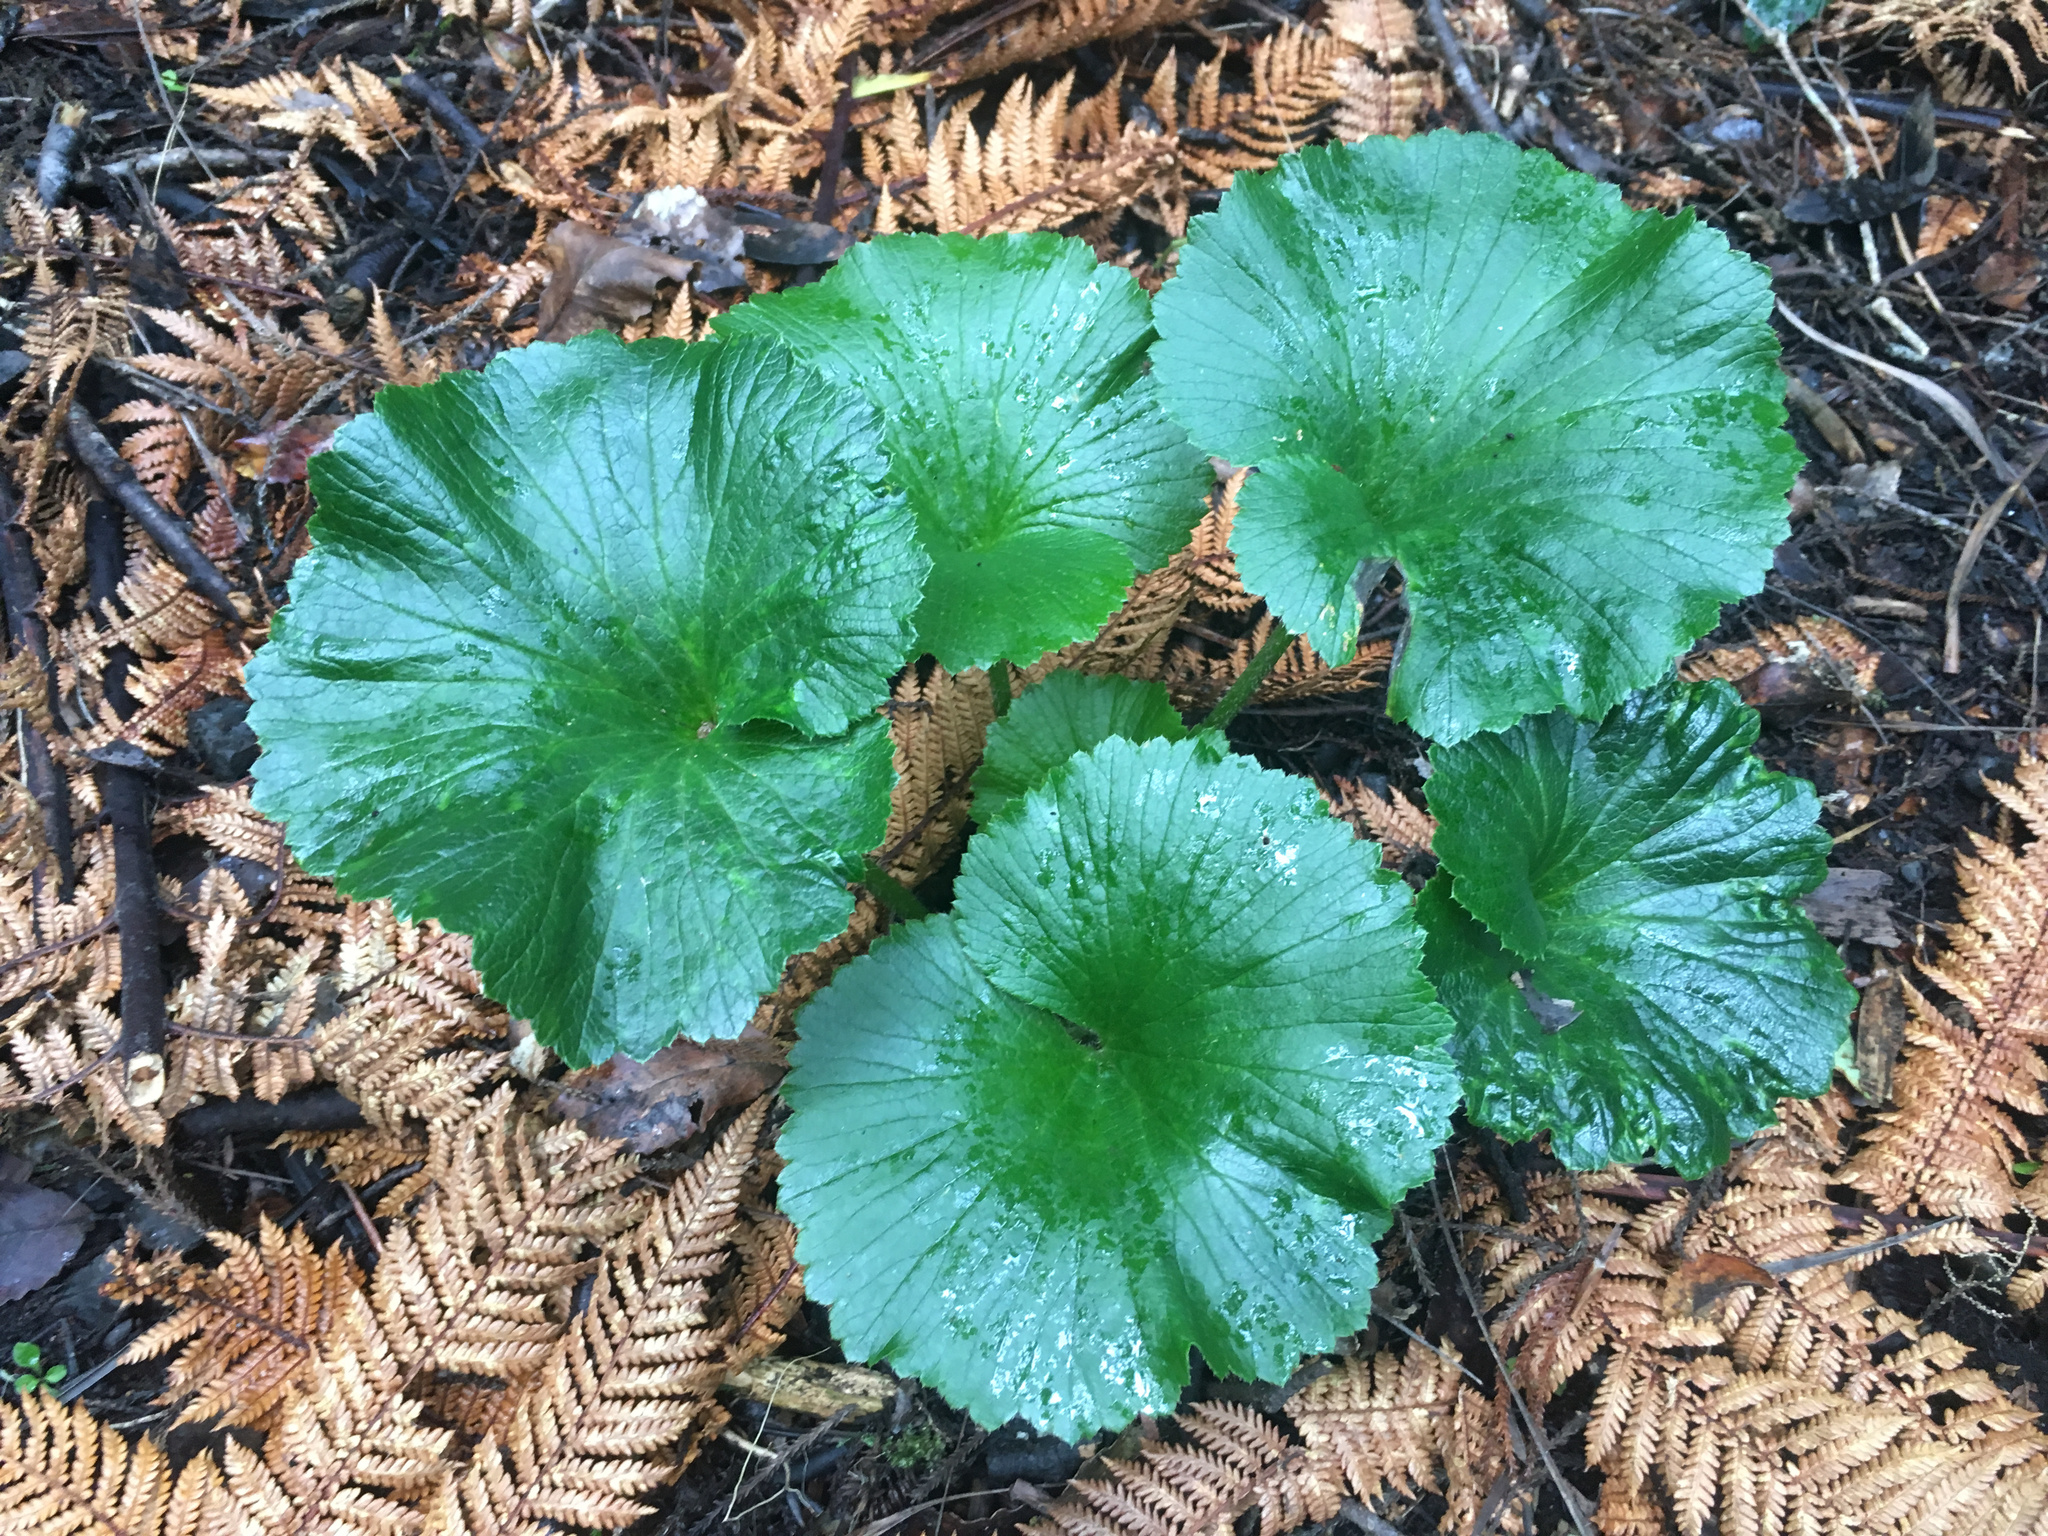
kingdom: Plantae
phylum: Tracheophyta
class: Magnoliopsida
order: Apiales
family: Apiaceae
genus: Azorella
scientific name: Azorella lyallii
